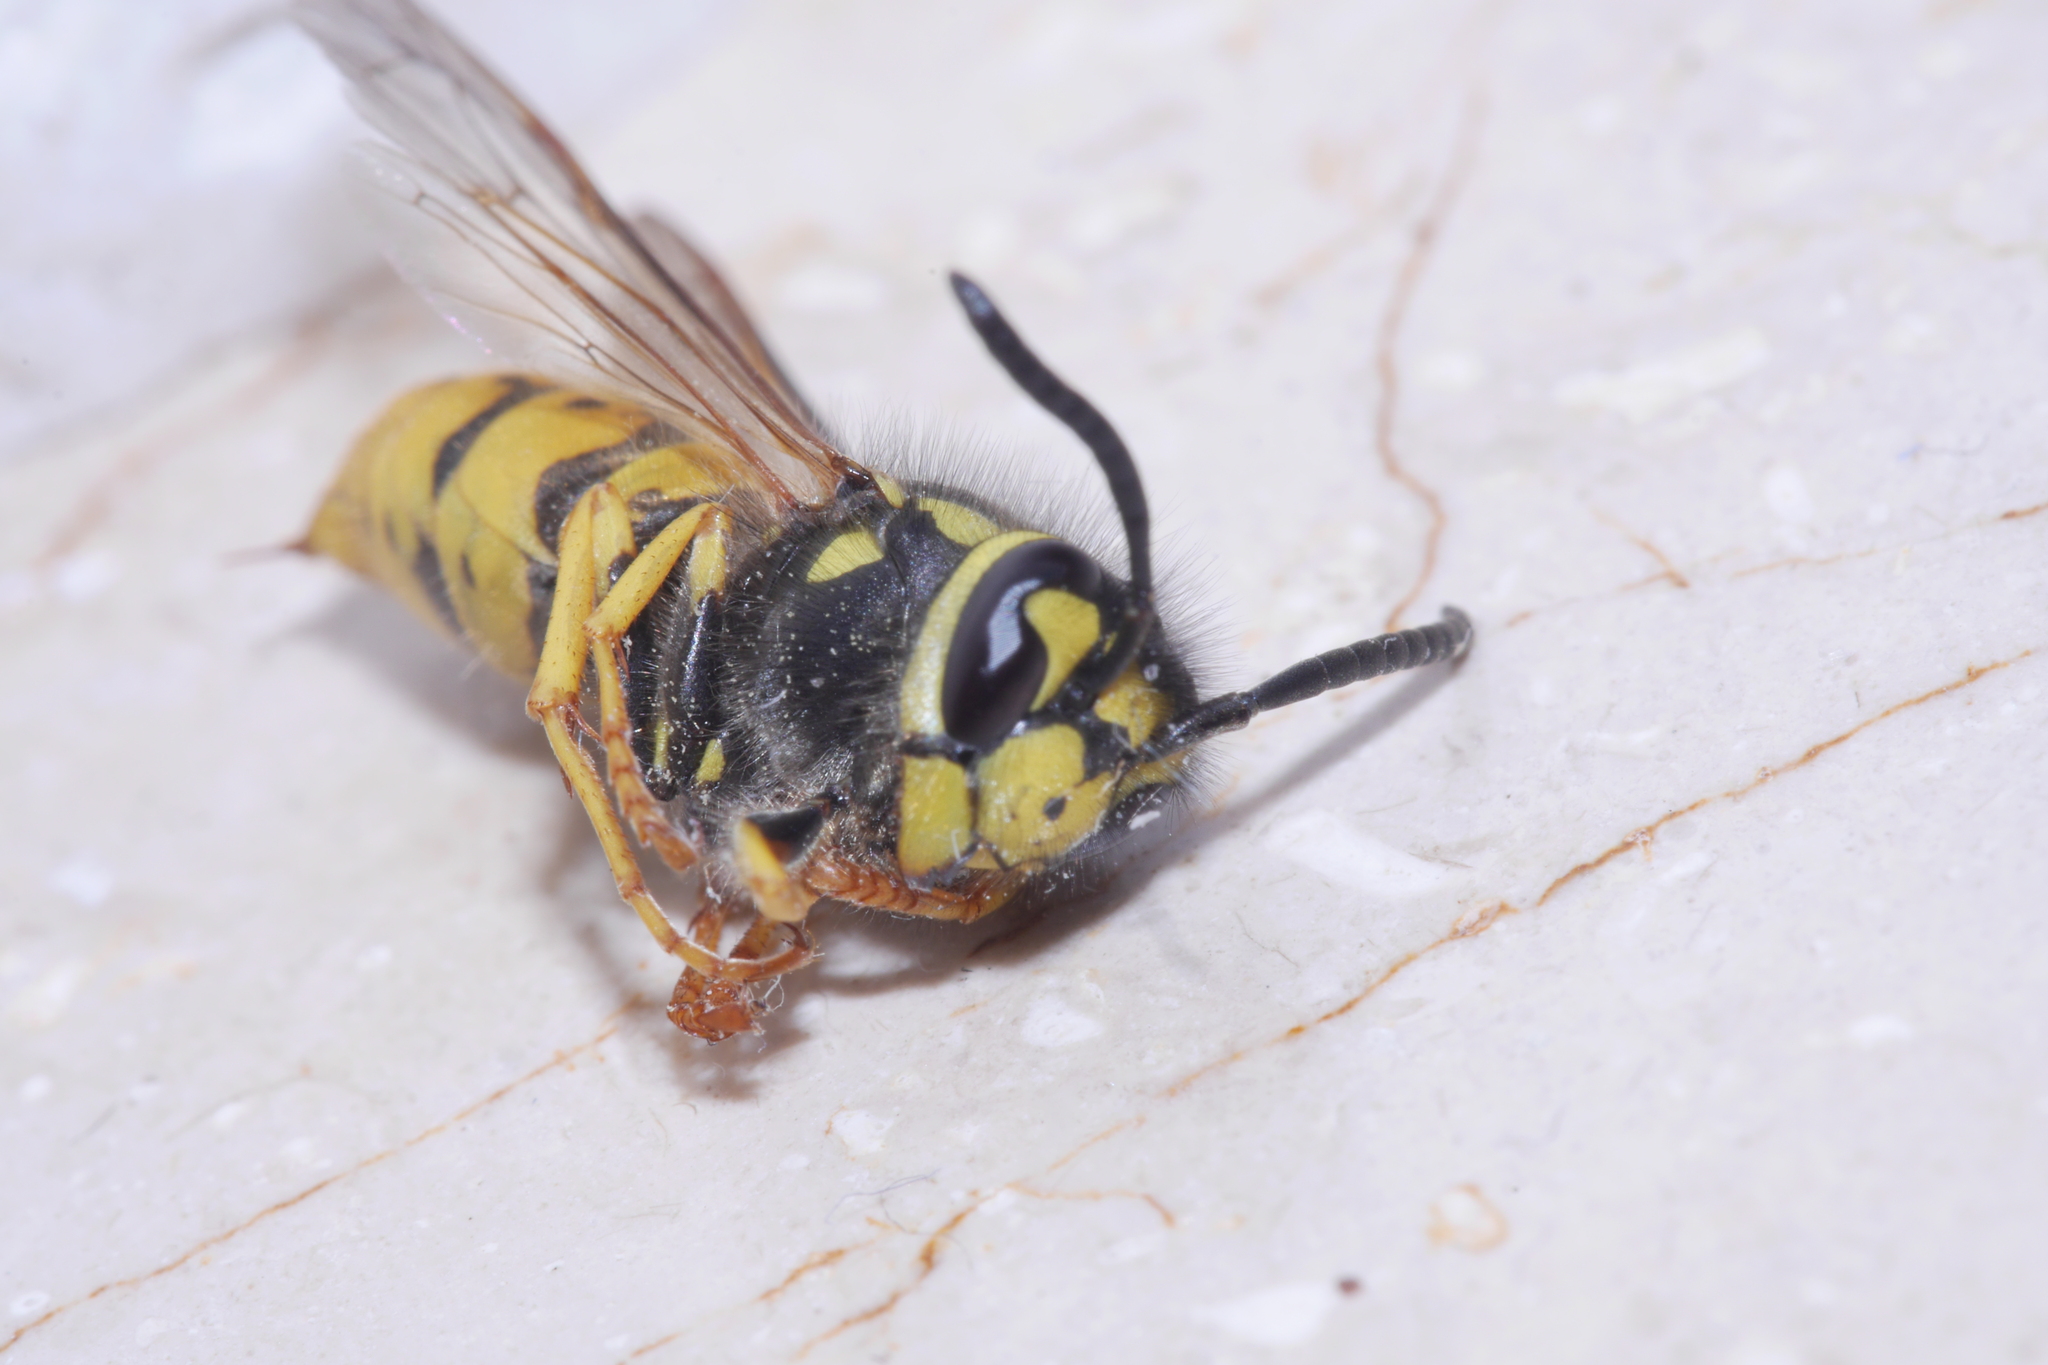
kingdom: Animalia
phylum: Arthropoda
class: Insecta
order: Hymenoptera
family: Vespidae
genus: Vespula
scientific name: Vespula germanica
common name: German wasp
